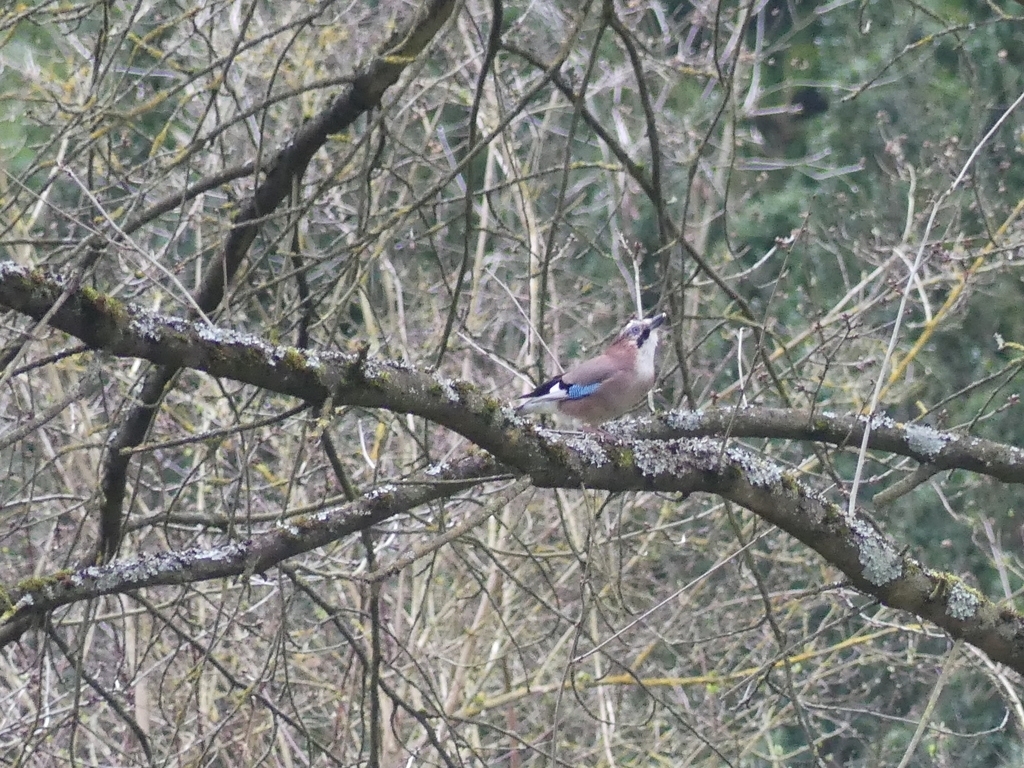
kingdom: Animalia
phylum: Chordata
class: Aves
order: Passeriformes
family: Corvidae
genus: Garrulus
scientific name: Garrulus glandarius
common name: Eurasian jay
